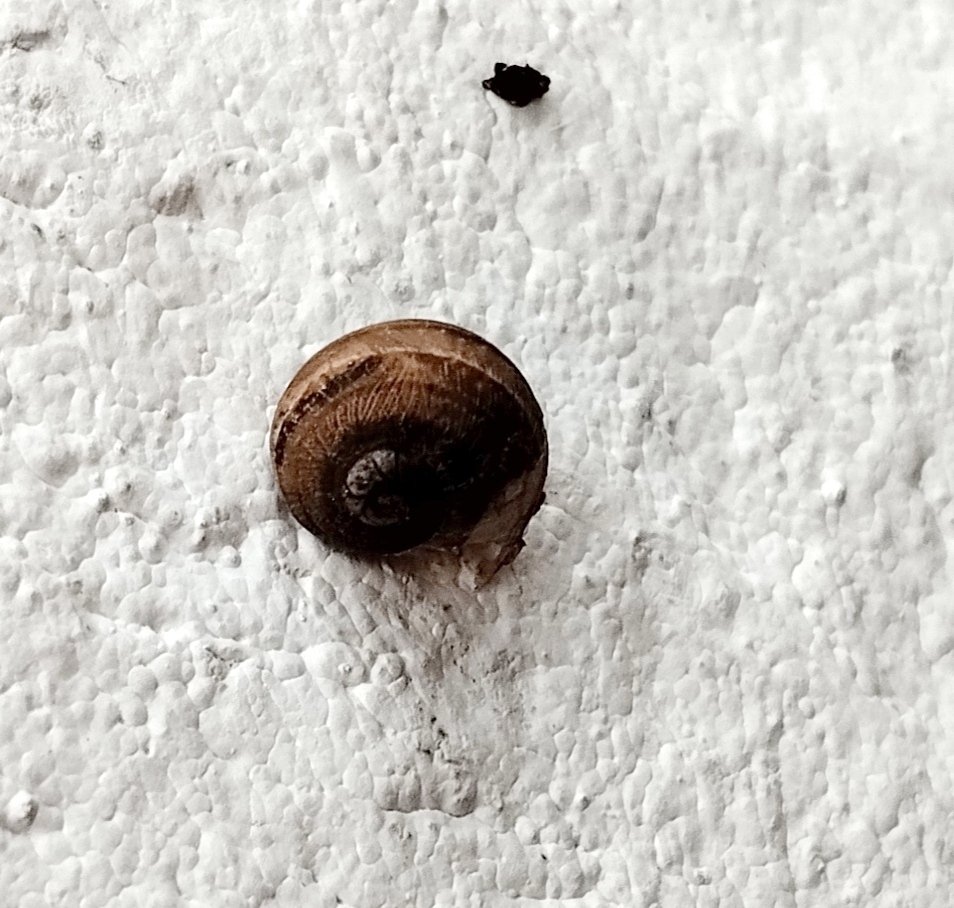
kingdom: Animalia
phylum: Mollusca
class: Gastropoda
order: Stylommatophora
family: Helicidae
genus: Cornu
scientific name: Cornu aspersum
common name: Brown garden snail
